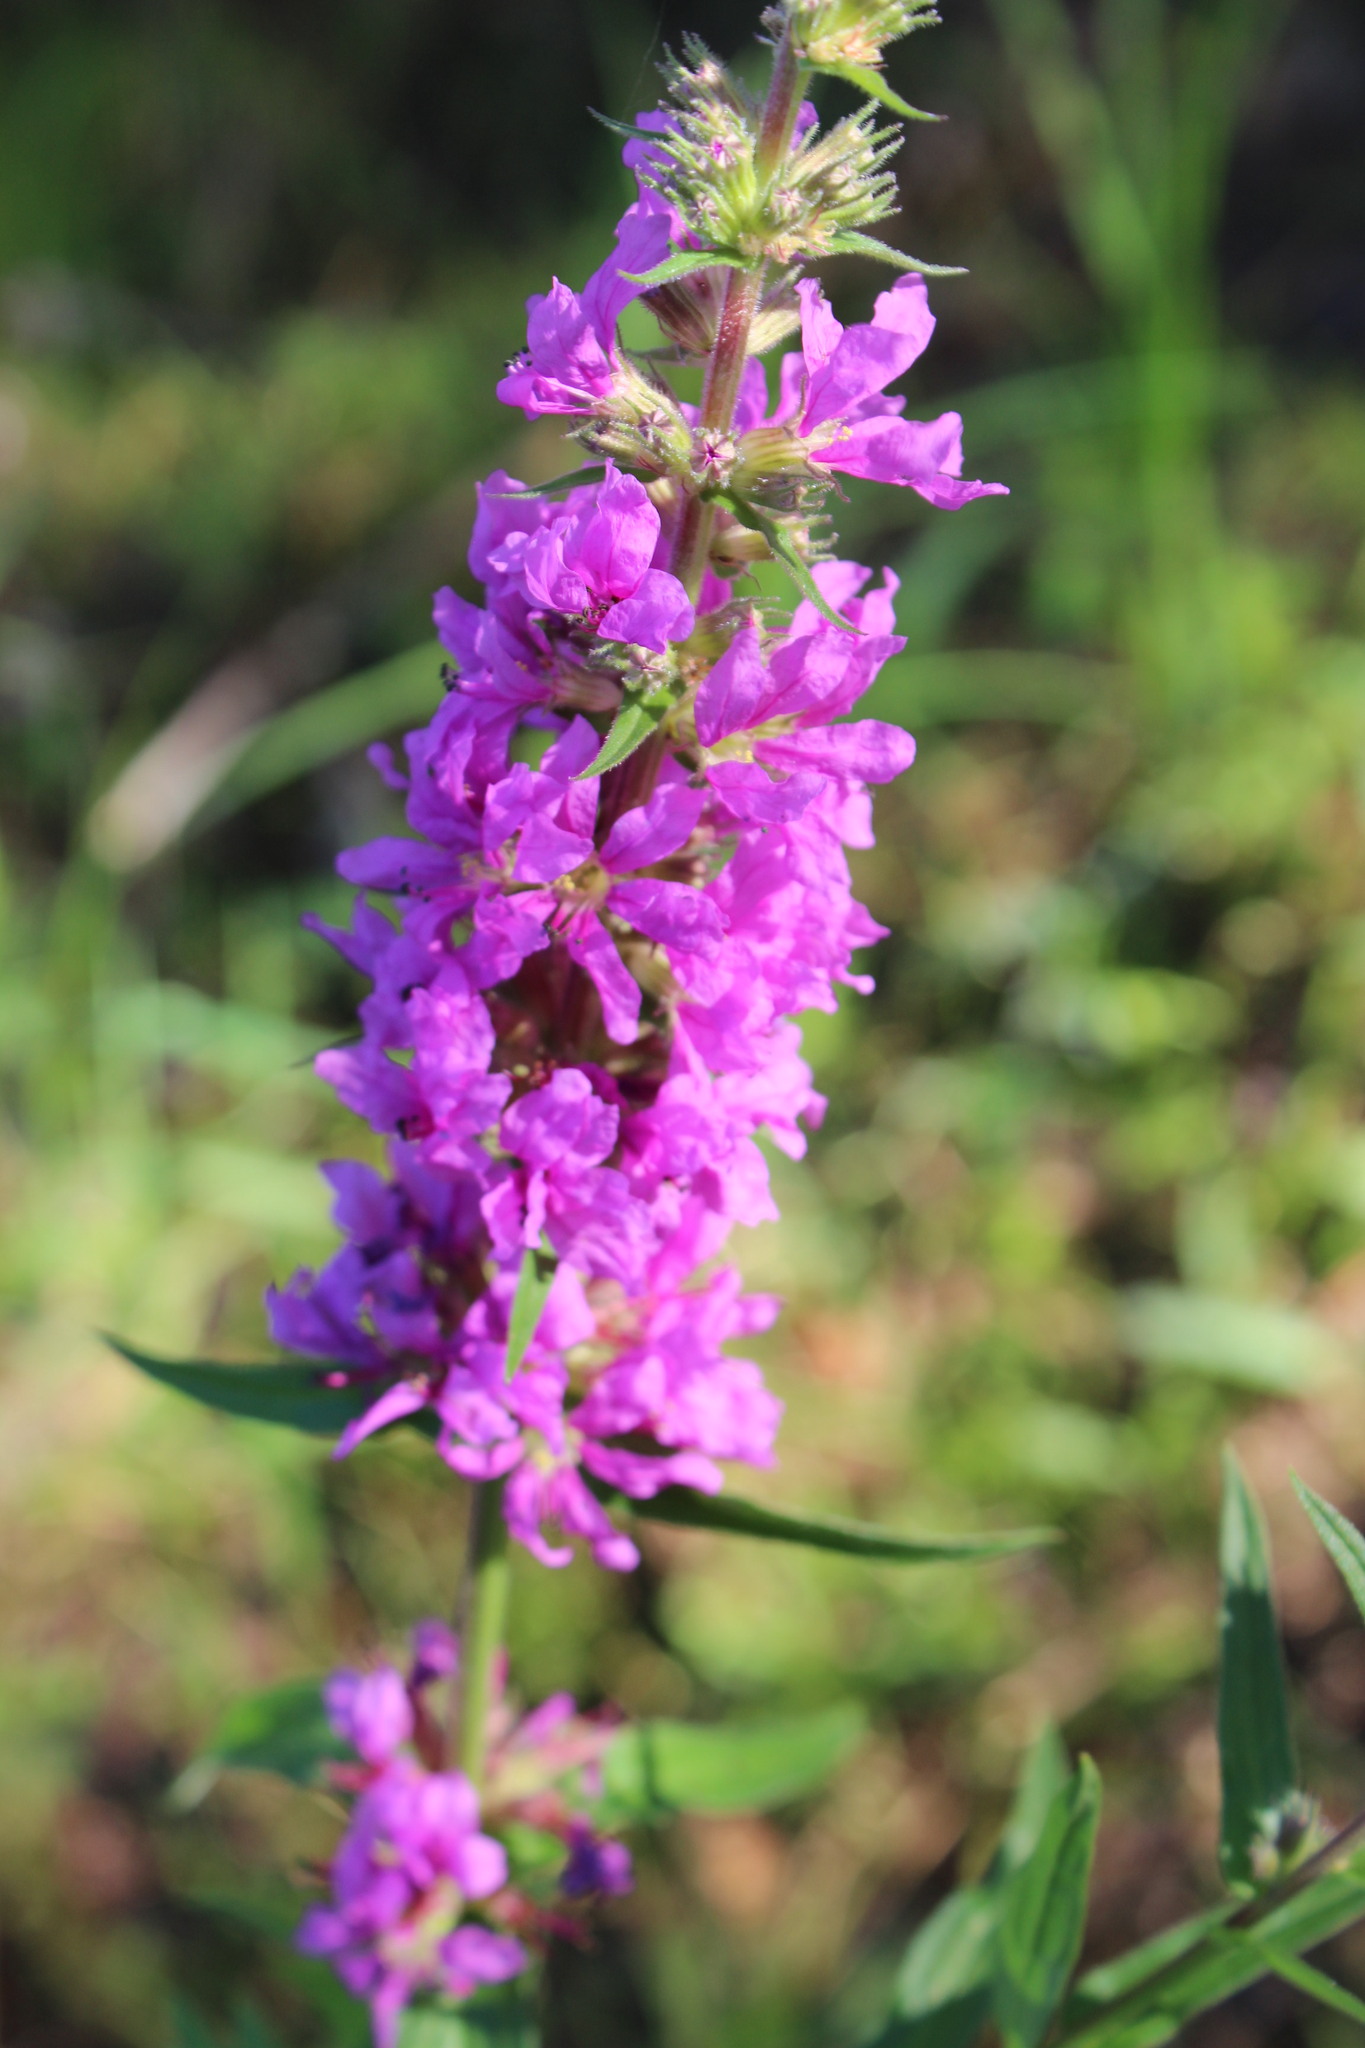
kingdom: Plantae
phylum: Tracheophyta
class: Magnoliopsida
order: Myrtales
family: Lythraceae
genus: Lythrum
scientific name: Lythrum salicaria
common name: Purple loosestrife
